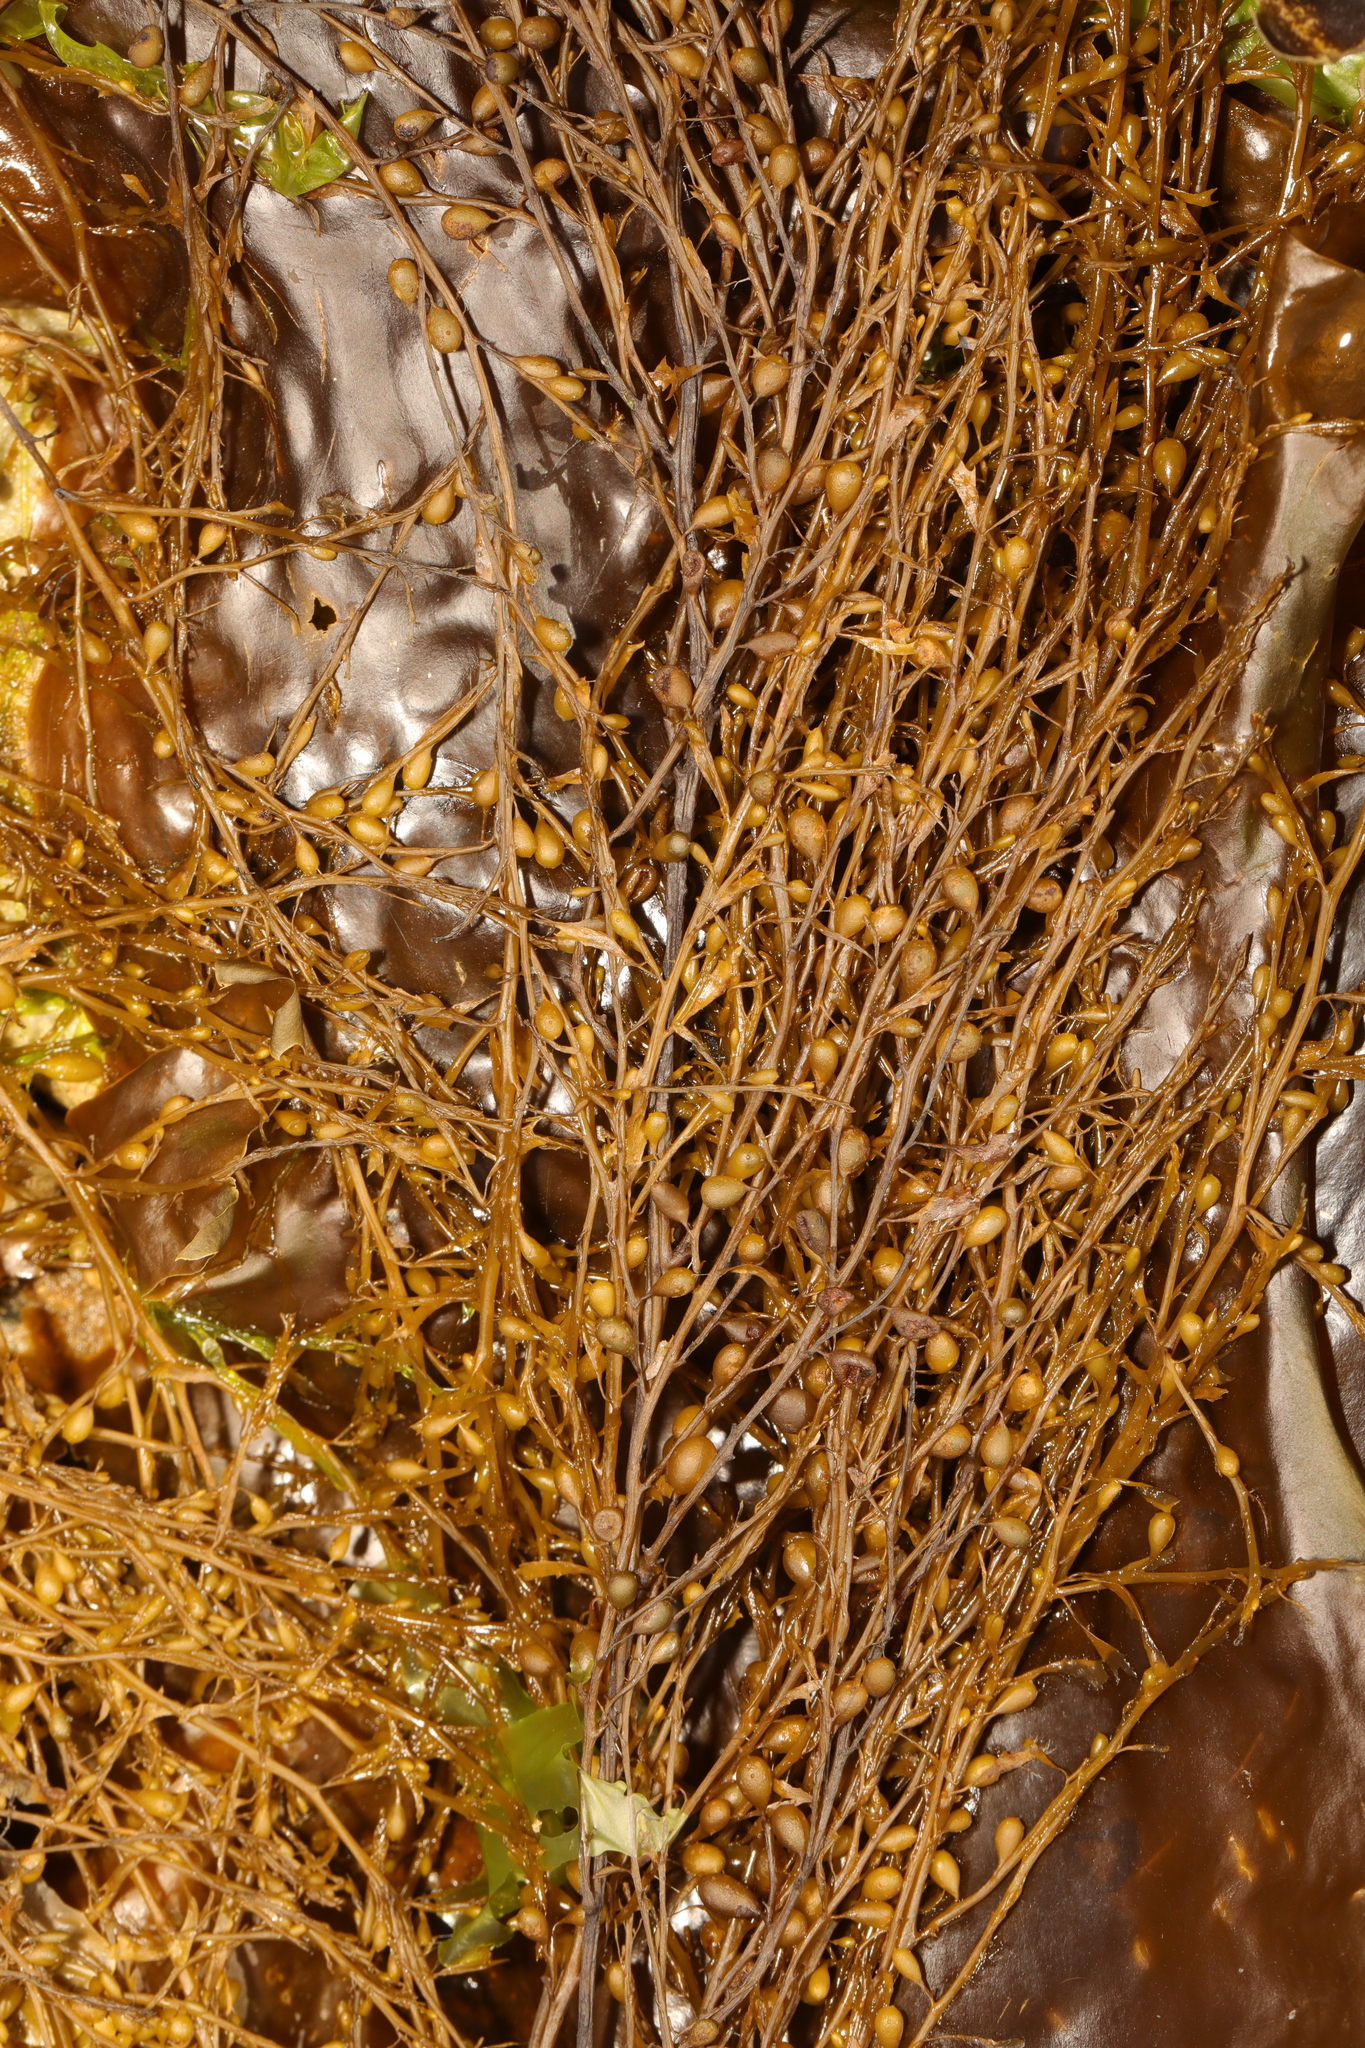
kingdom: Chromista
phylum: Ochrophyta
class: Phaeophyceae
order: Fucales
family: Sargassaceae
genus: Sargassum
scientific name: Sargassum muticum
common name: Japweed
